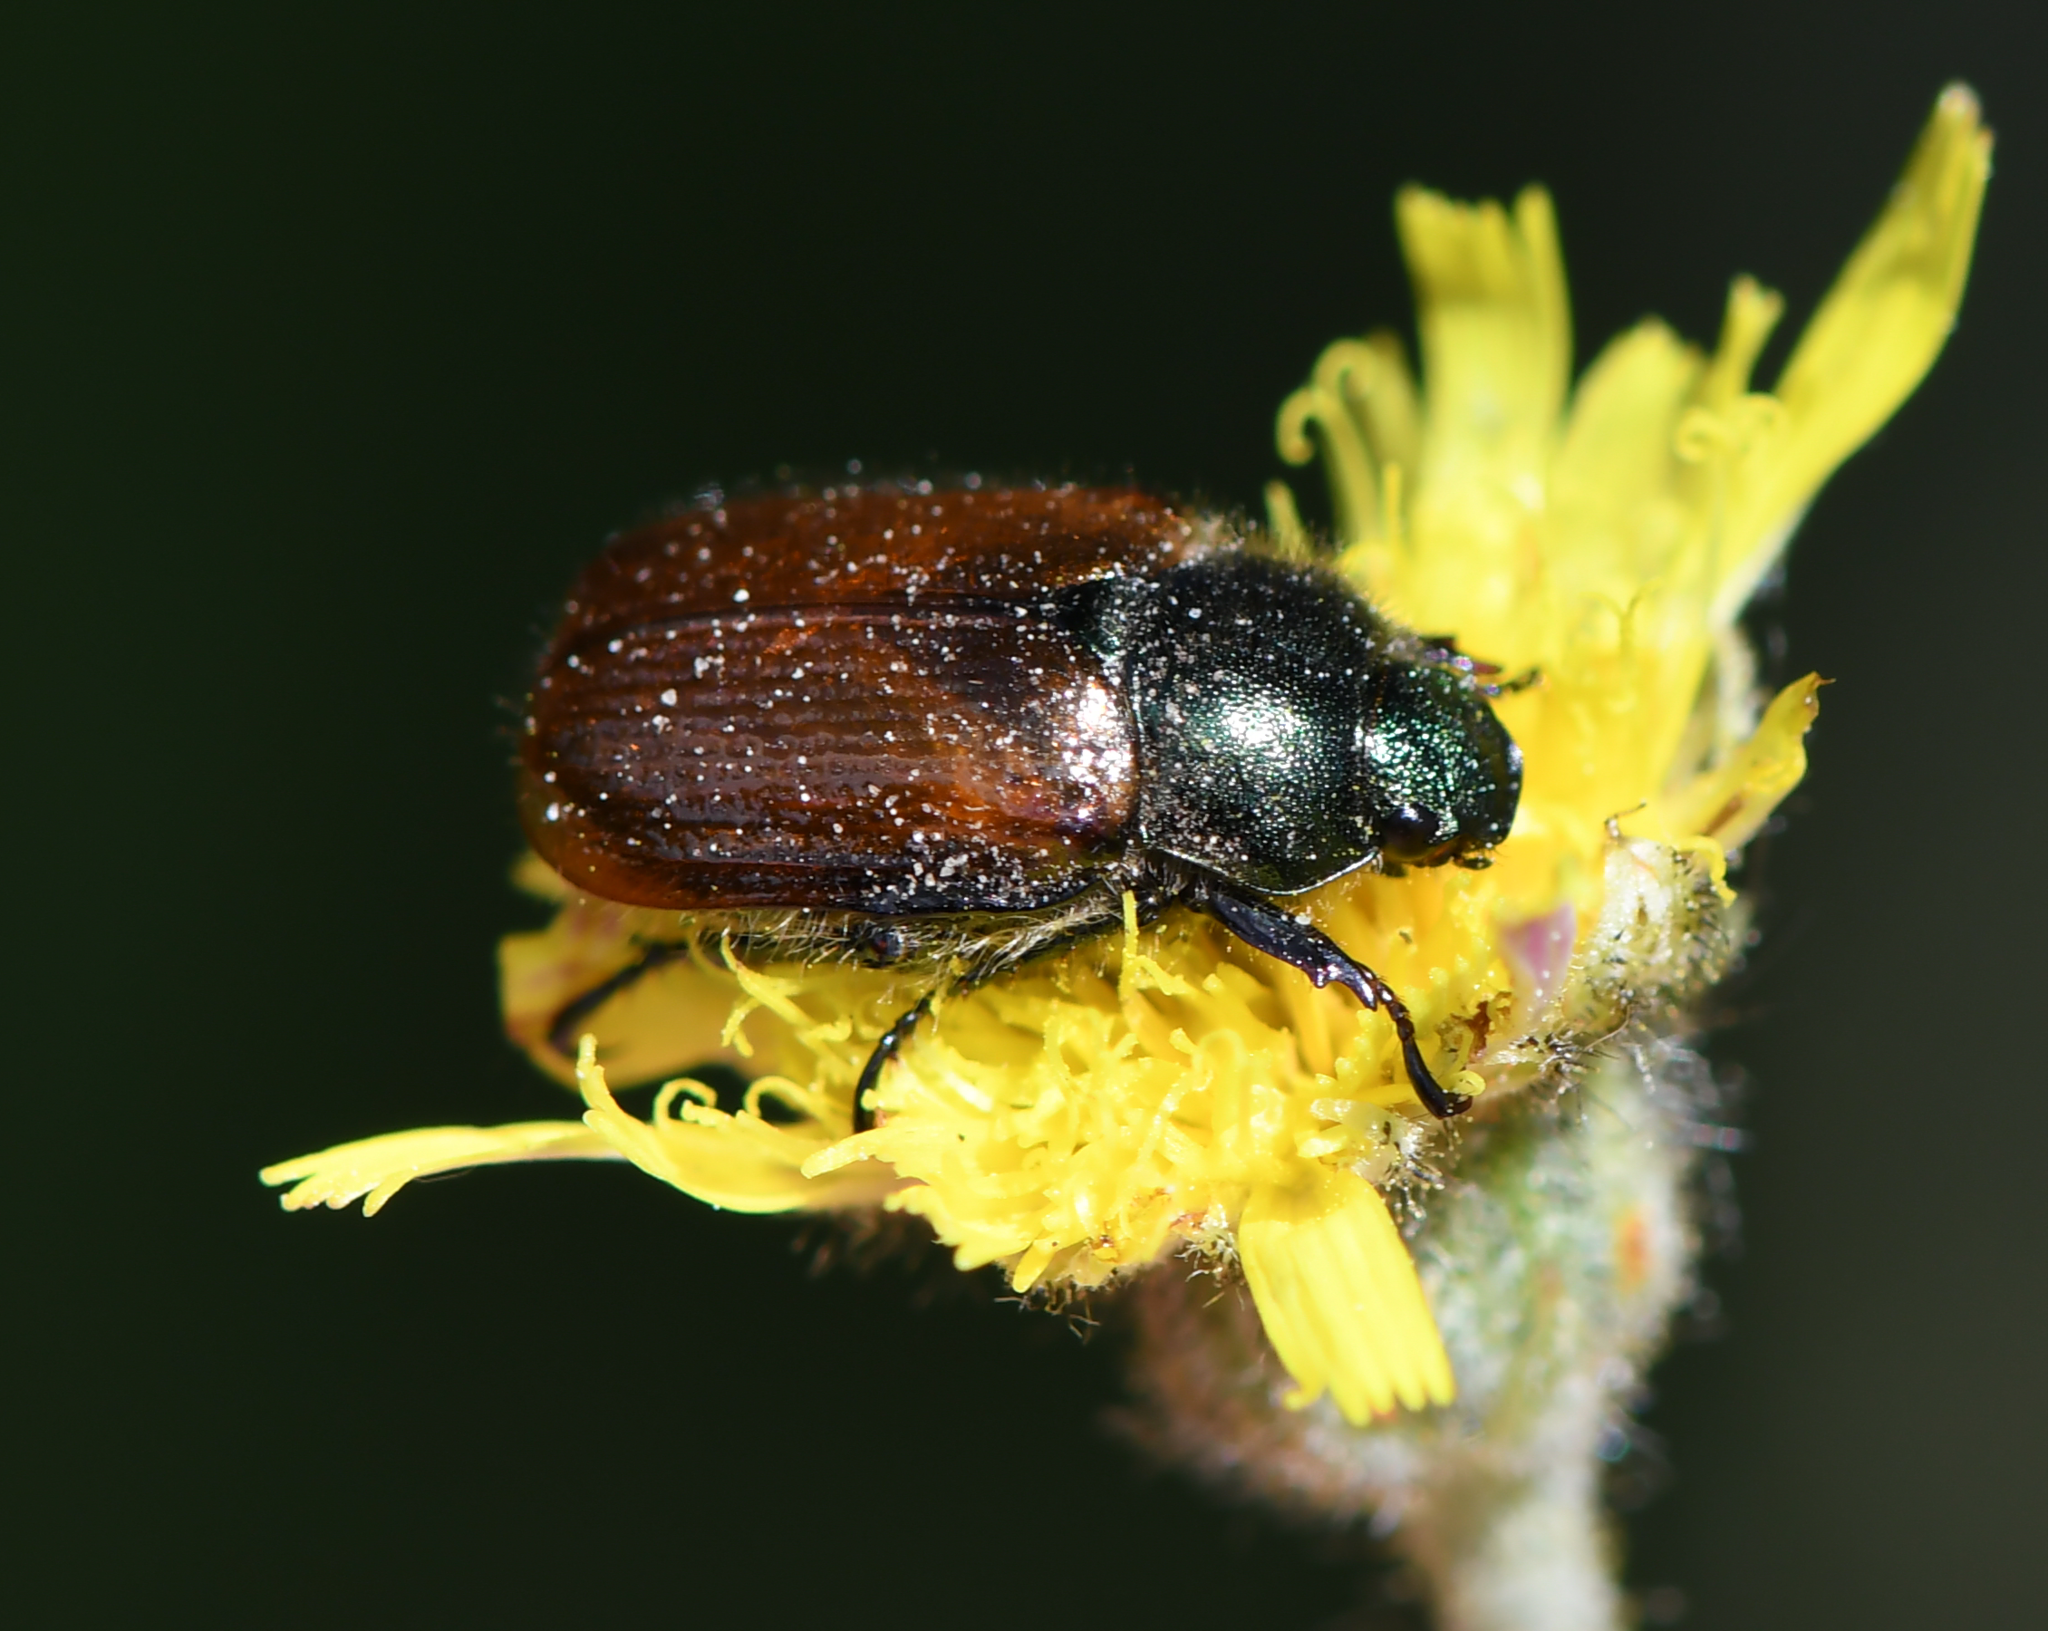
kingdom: Animalia
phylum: Arthropoda
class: Insecta
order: Coleoptera
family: Scarabaeidae
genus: Phyllopertha
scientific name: Phyllopertha horticola
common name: Garden chafer
